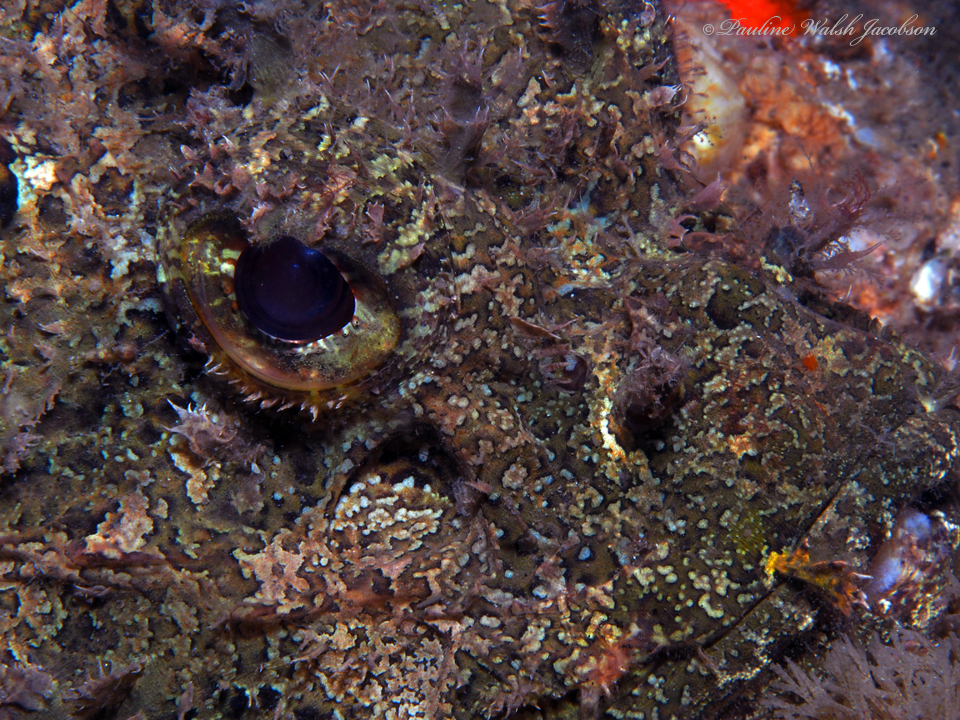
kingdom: Animalia
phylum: Chordata
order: Scorpaeniformes
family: Scorpaenidae
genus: Scorpaena
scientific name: Scorpaena plumieri
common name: Spotted scorpionfish
